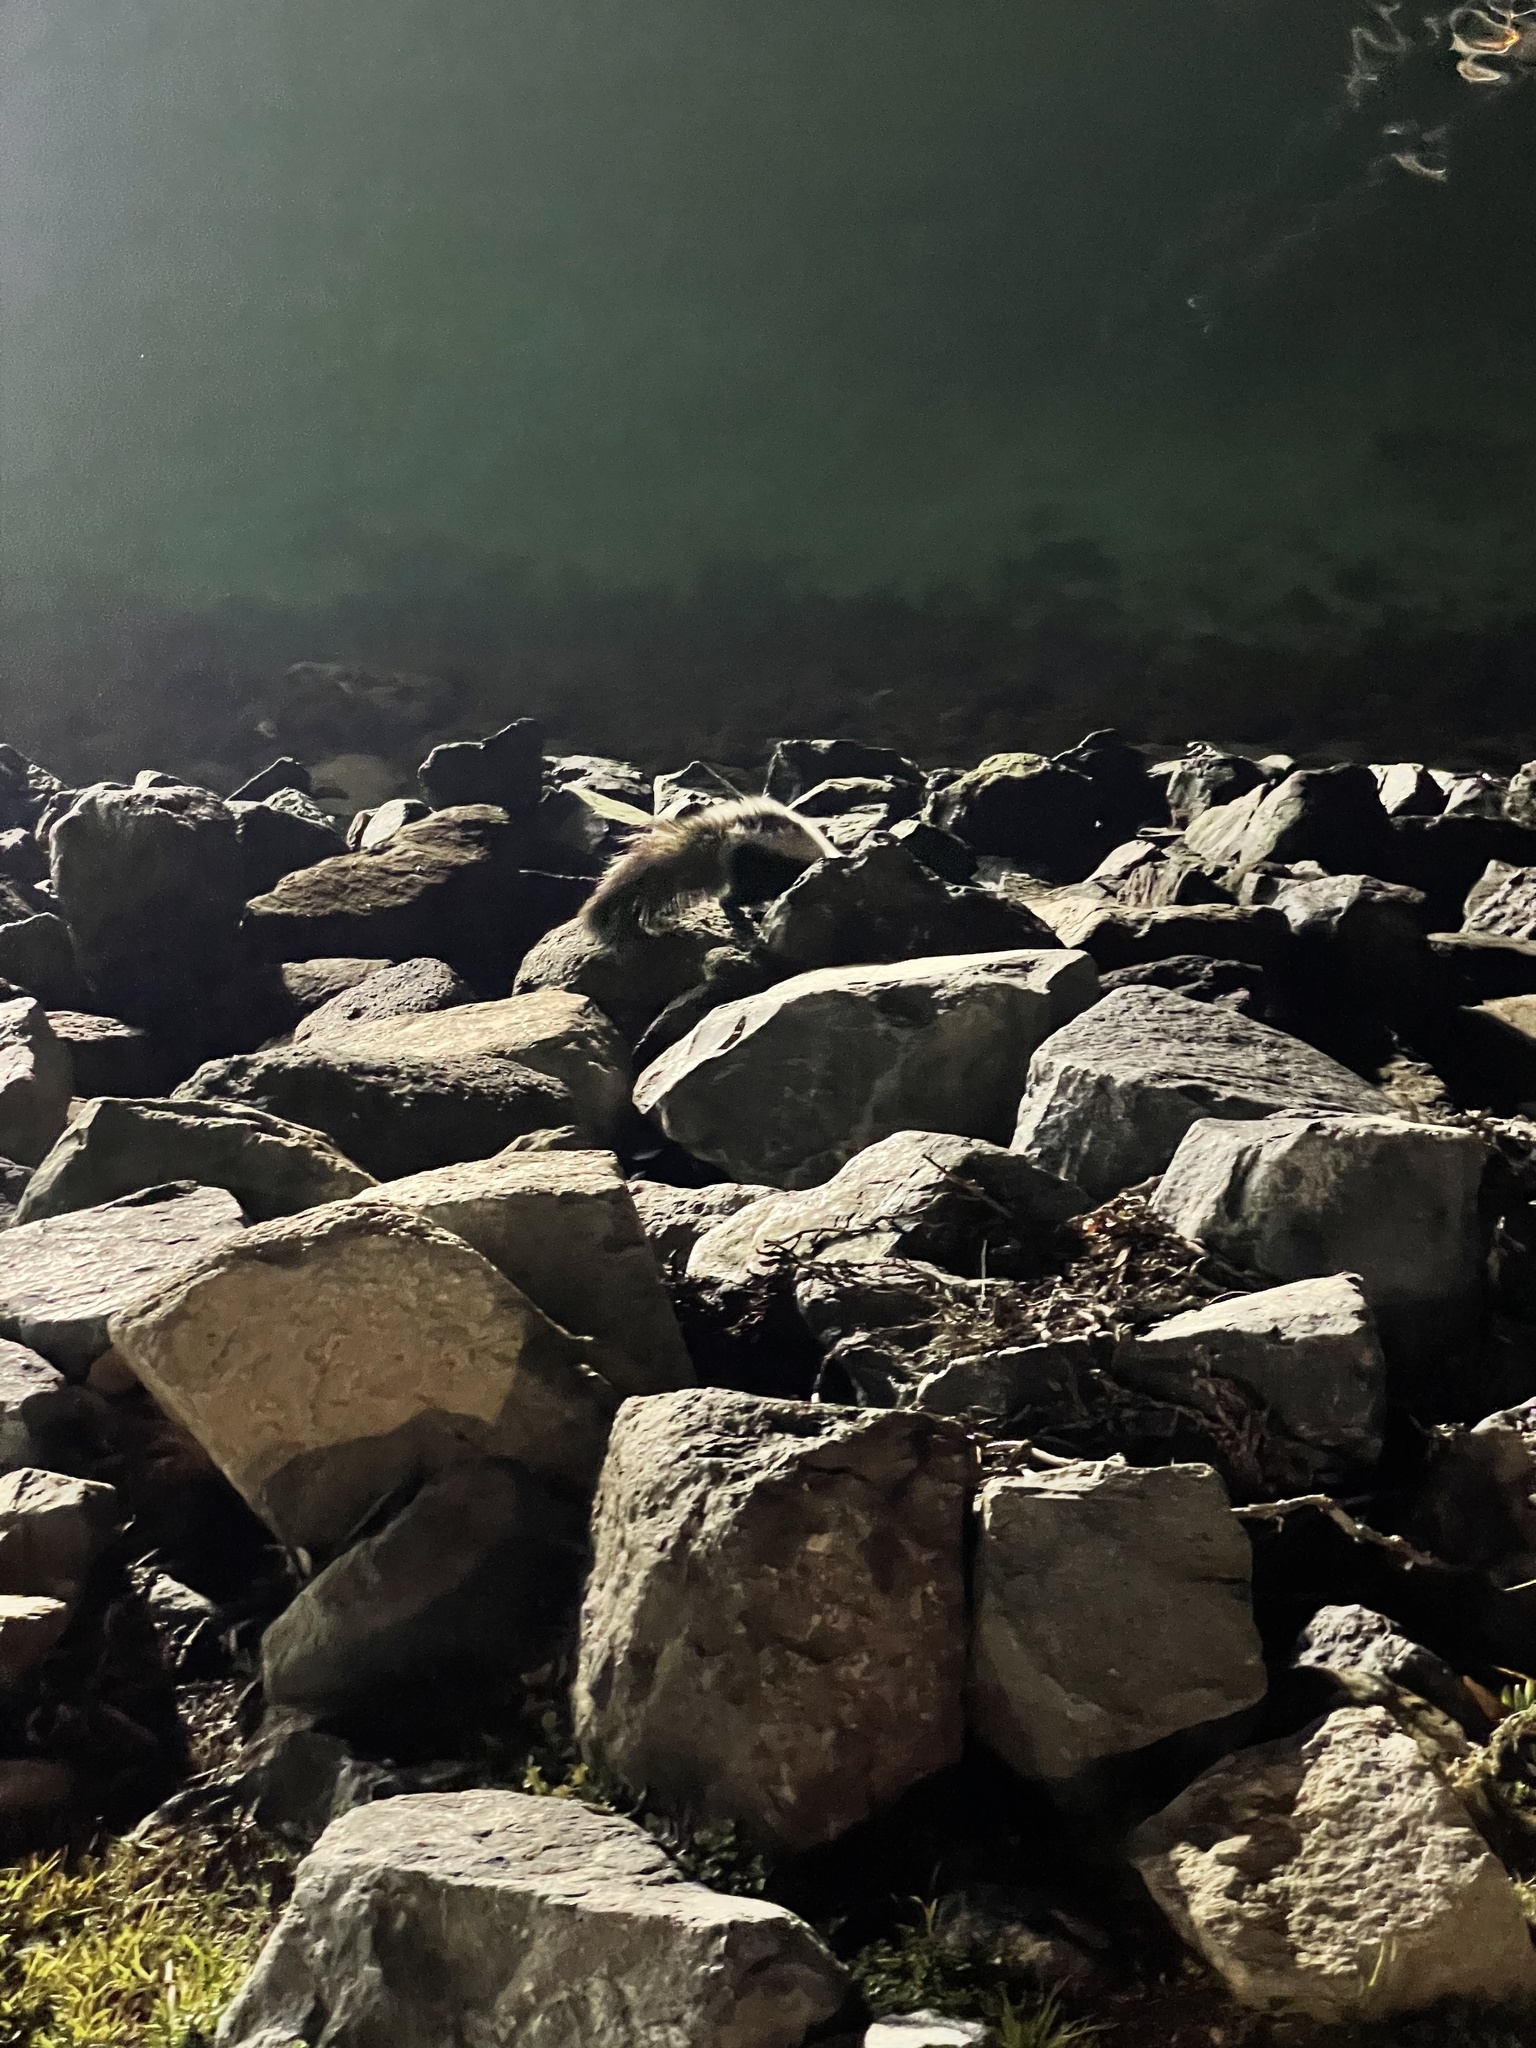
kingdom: Animalia
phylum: Chordata
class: Mammalia
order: Carnivora
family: Mephitidae
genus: Mephitis
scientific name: Mephitis mephitis
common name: Striped skunk
